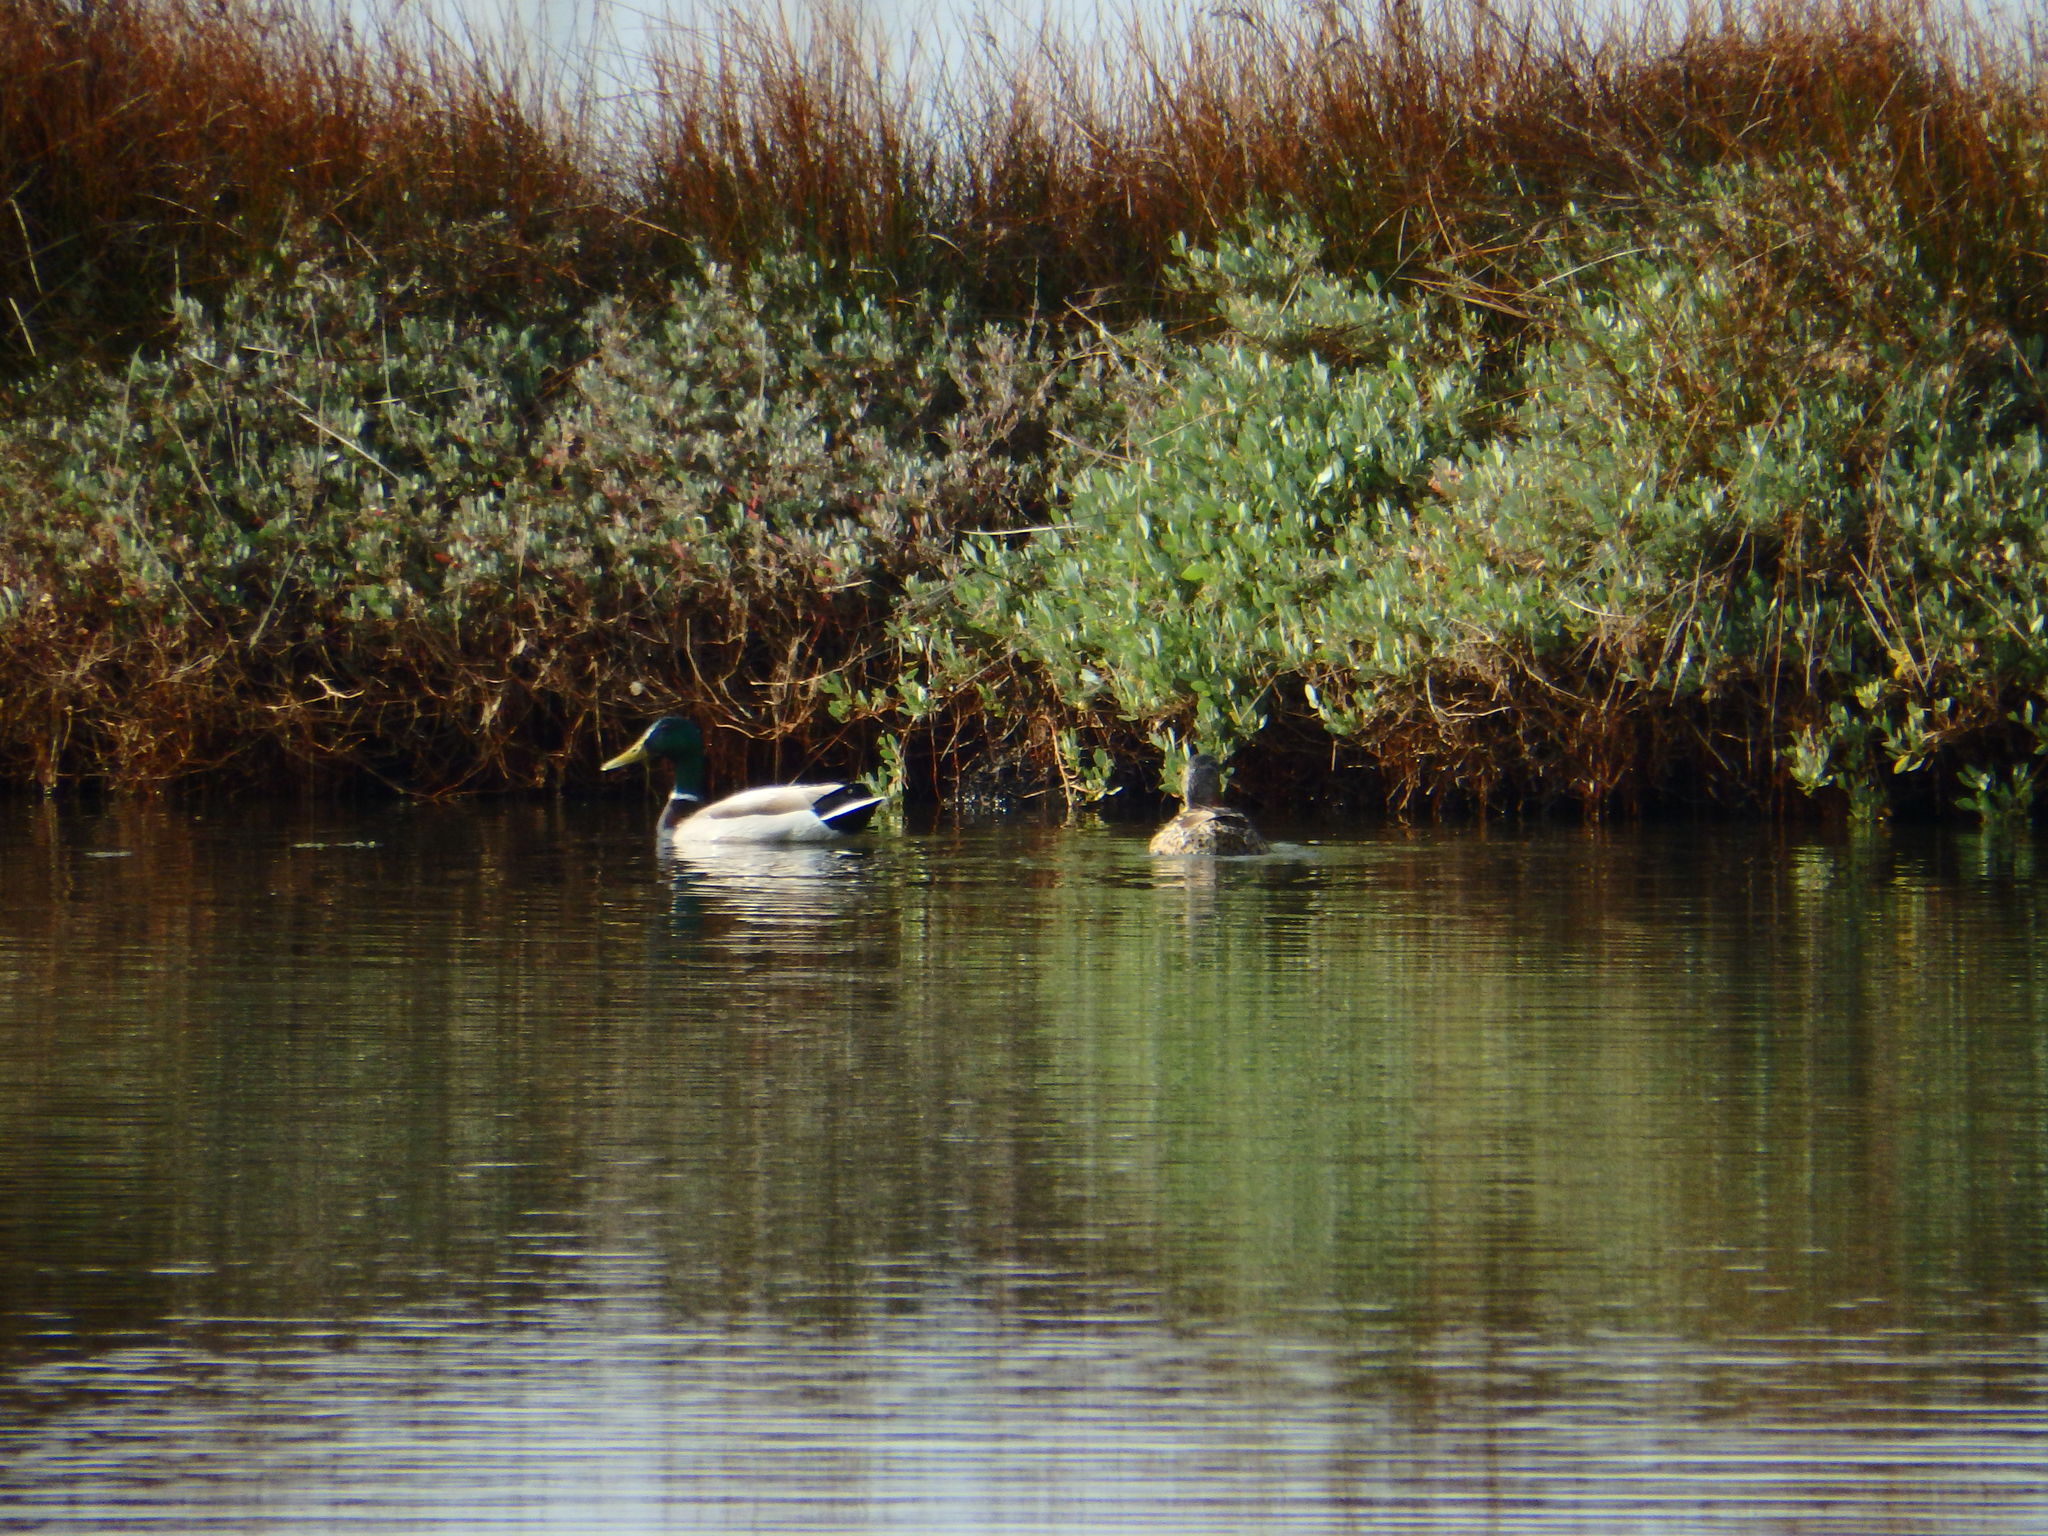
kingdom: Animalia
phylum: Chordata
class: Aves
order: Anseriformes
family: Anatidae
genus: Anas
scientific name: Anas platyrhynchos
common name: Mallard
